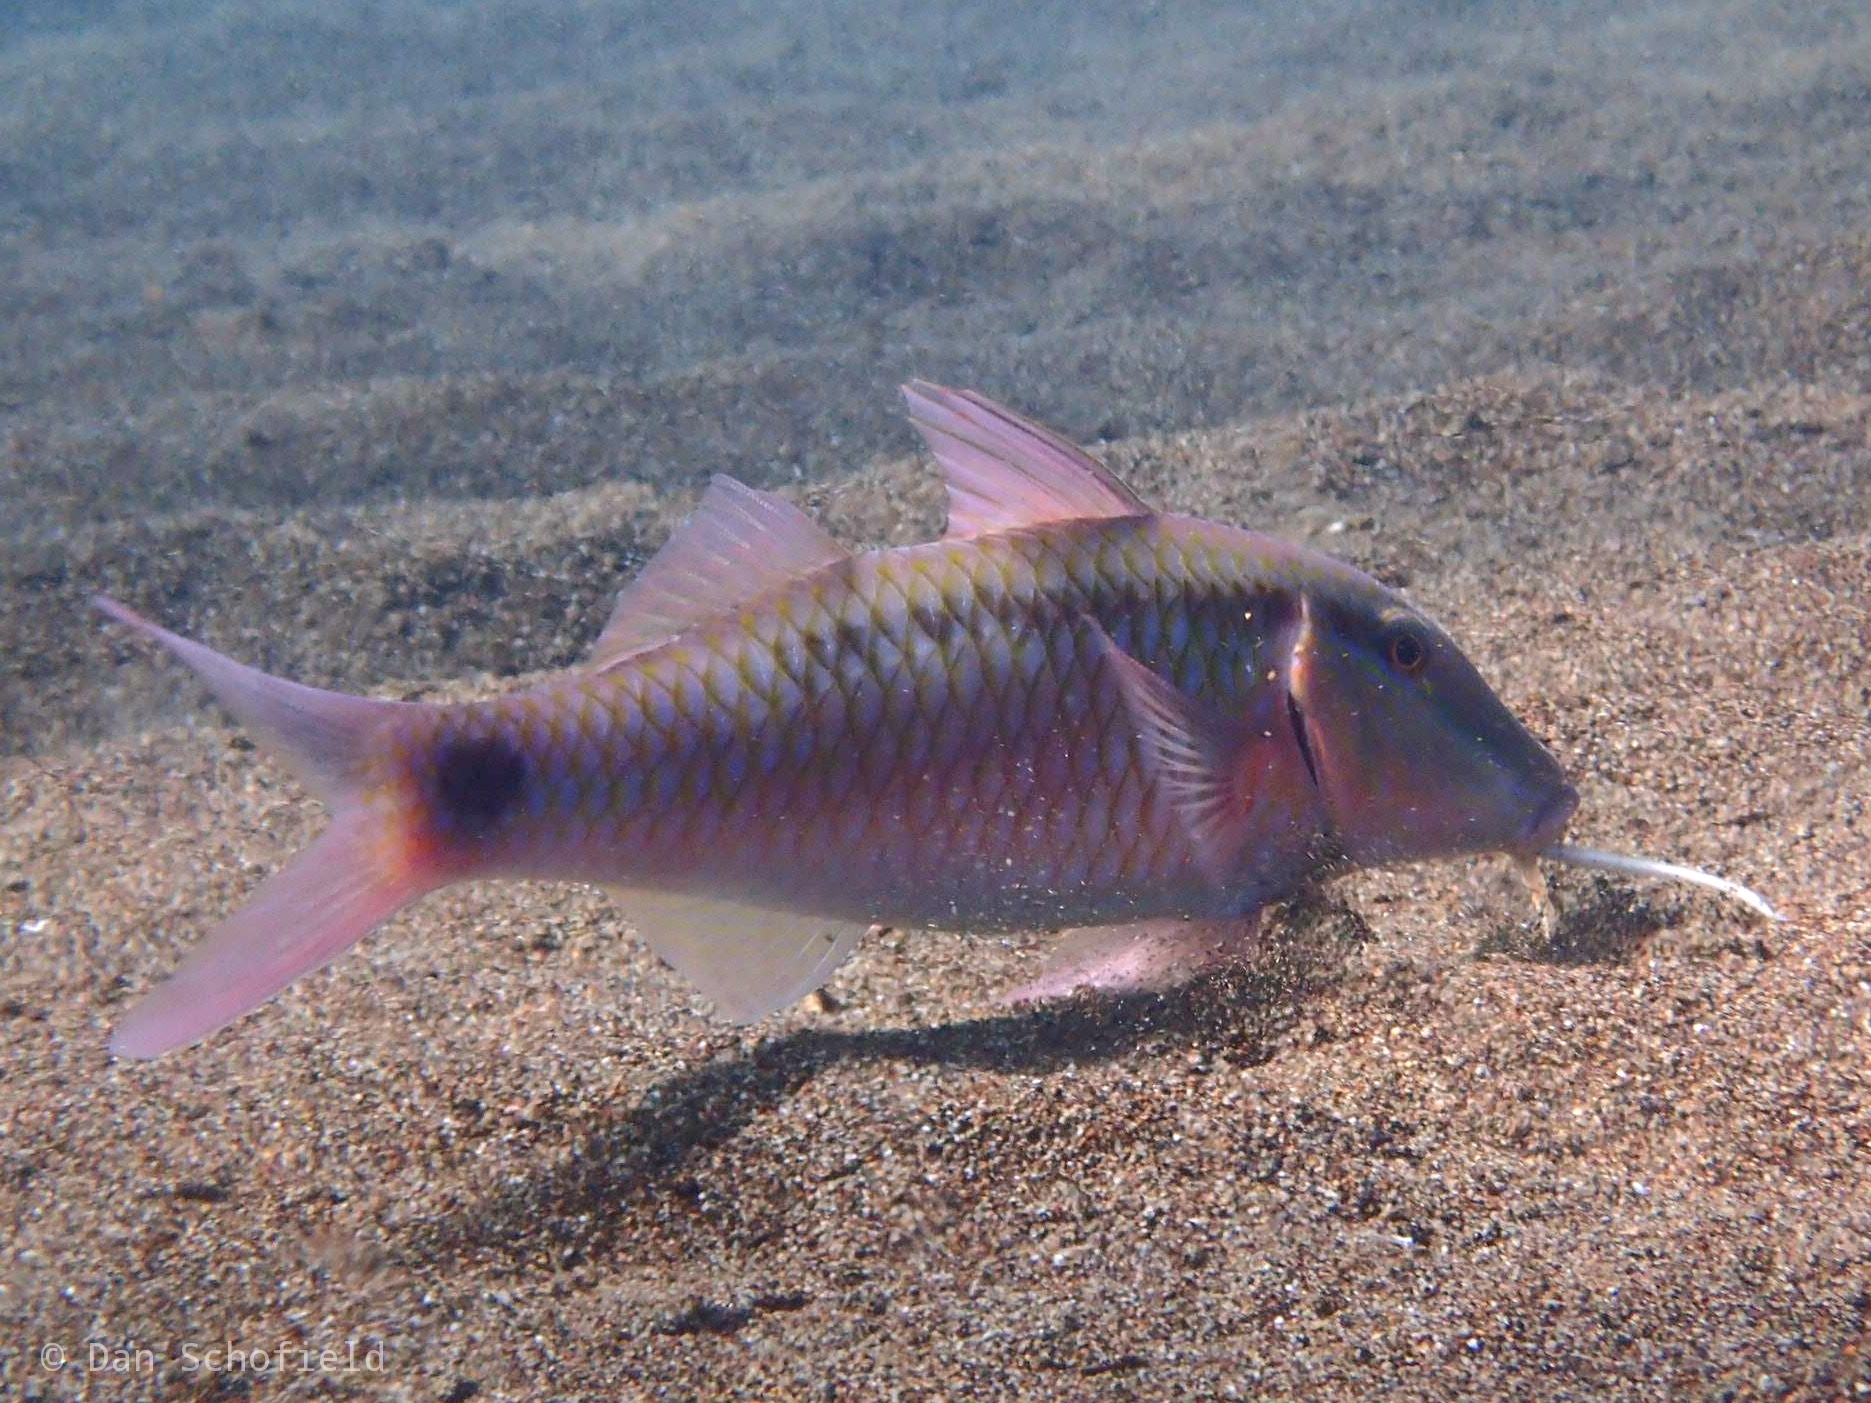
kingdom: Animalia
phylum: Chordata
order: Perciformes
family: Mullidae
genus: Parupeneus
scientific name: Parupeneus barberinus
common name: Dash-and-dot goatfish
